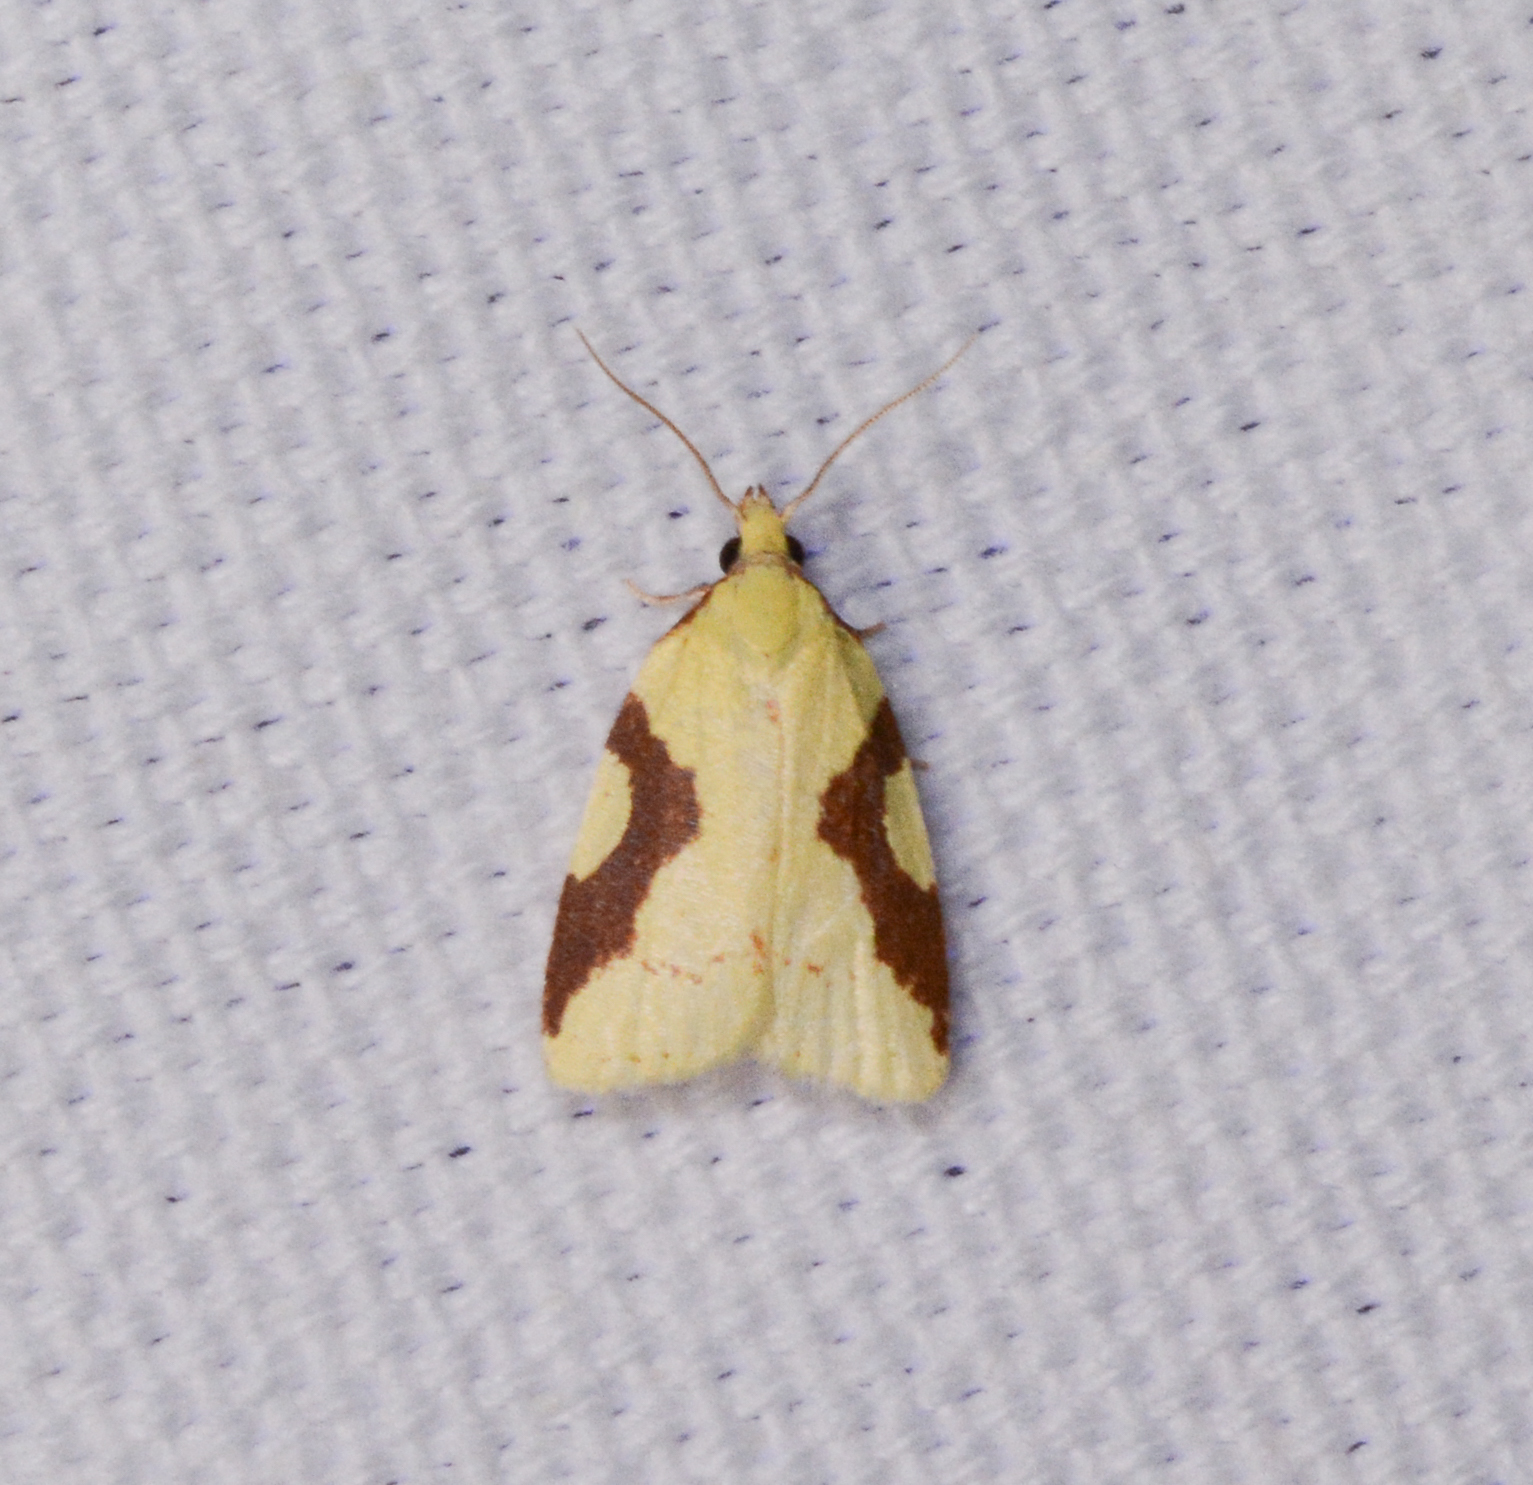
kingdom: Animalia
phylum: Arthropoda
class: Insecta
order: Lepidoptera
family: Tortricidae
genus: Cenopis
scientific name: Cenopis niveana
